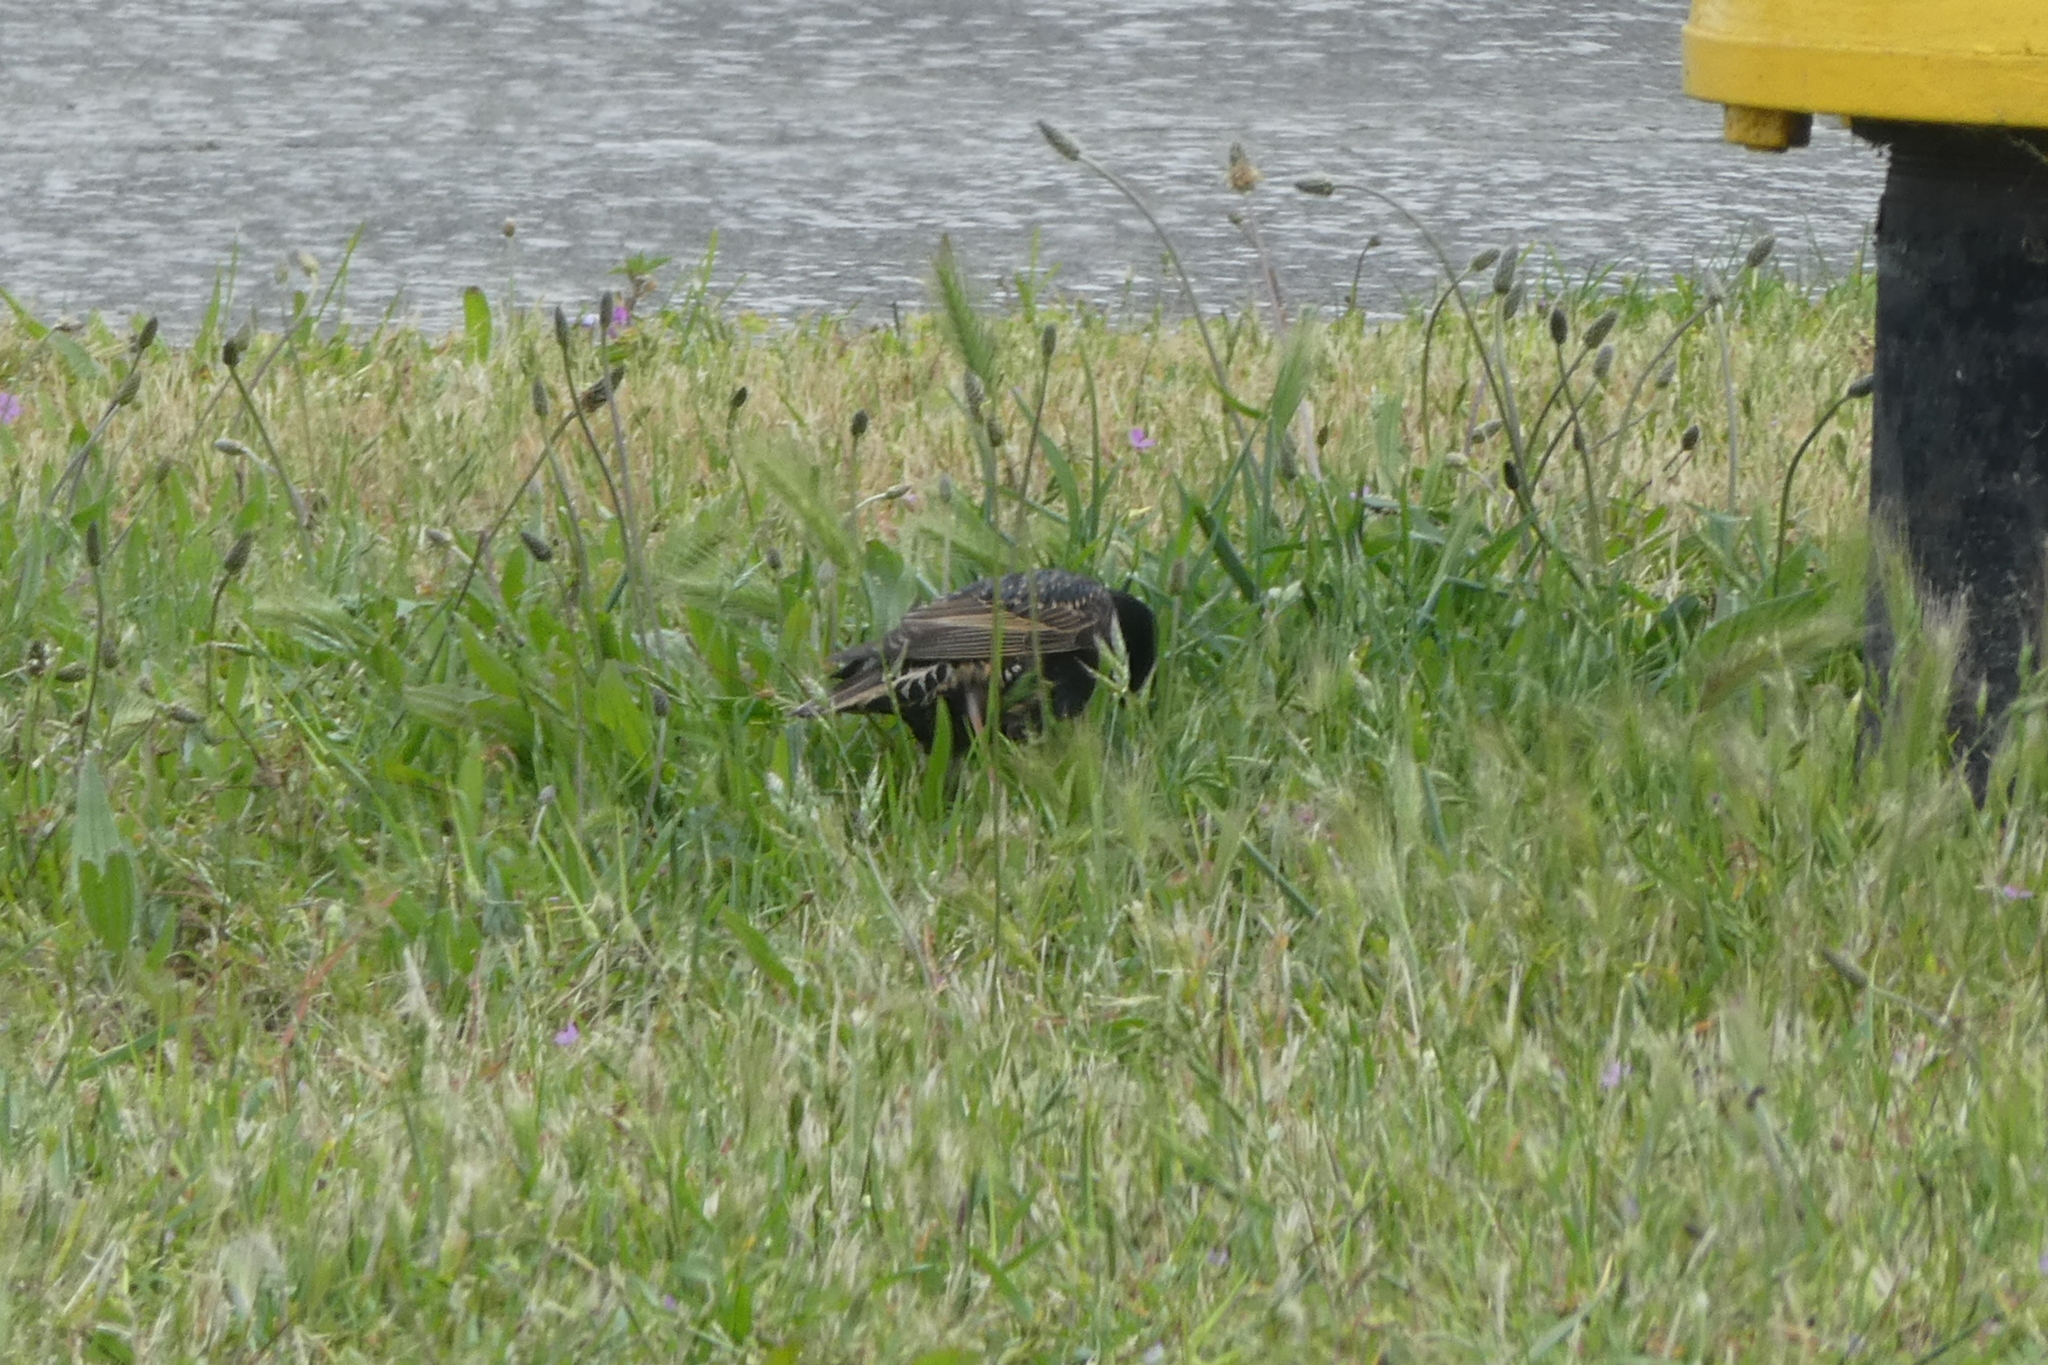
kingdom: Animalia
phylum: Chordata
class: Aves
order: Passeriformes
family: Sturnidae
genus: Sturnus
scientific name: Sturnus vulgaris
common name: Common starling
